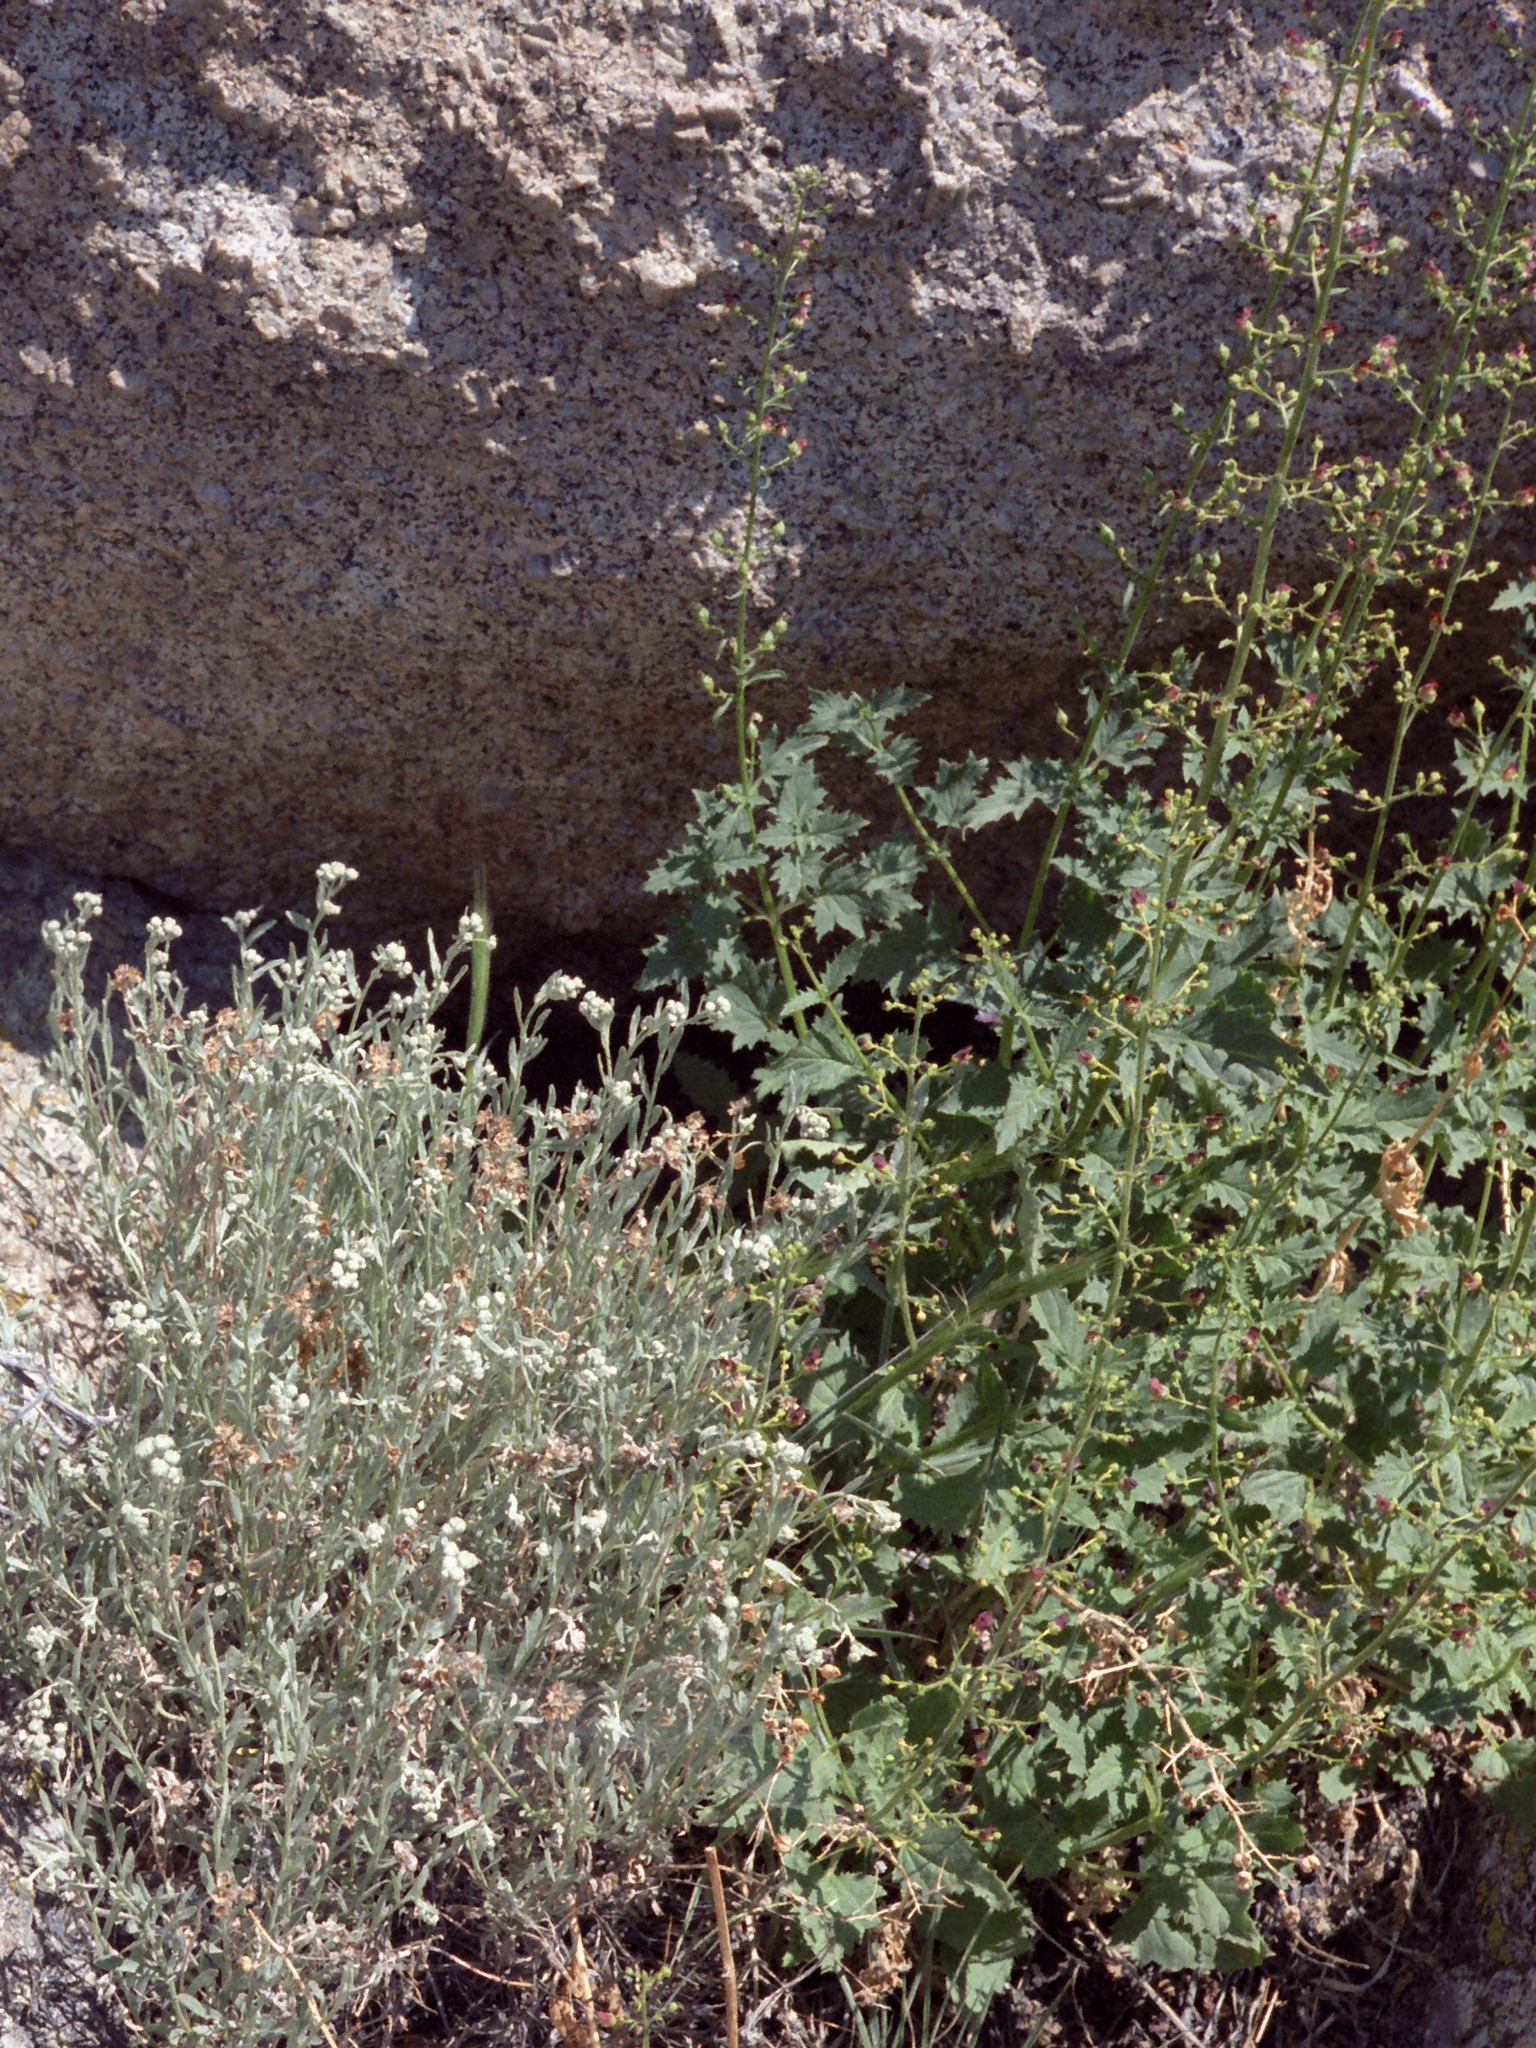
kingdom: Plantae
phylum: Tracheophyta
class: Magnoliopsida
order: Lamiales
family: Scrophulariaceae
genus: Scrophularia
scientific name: Scrophularia desertorum
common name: Desert figwort
